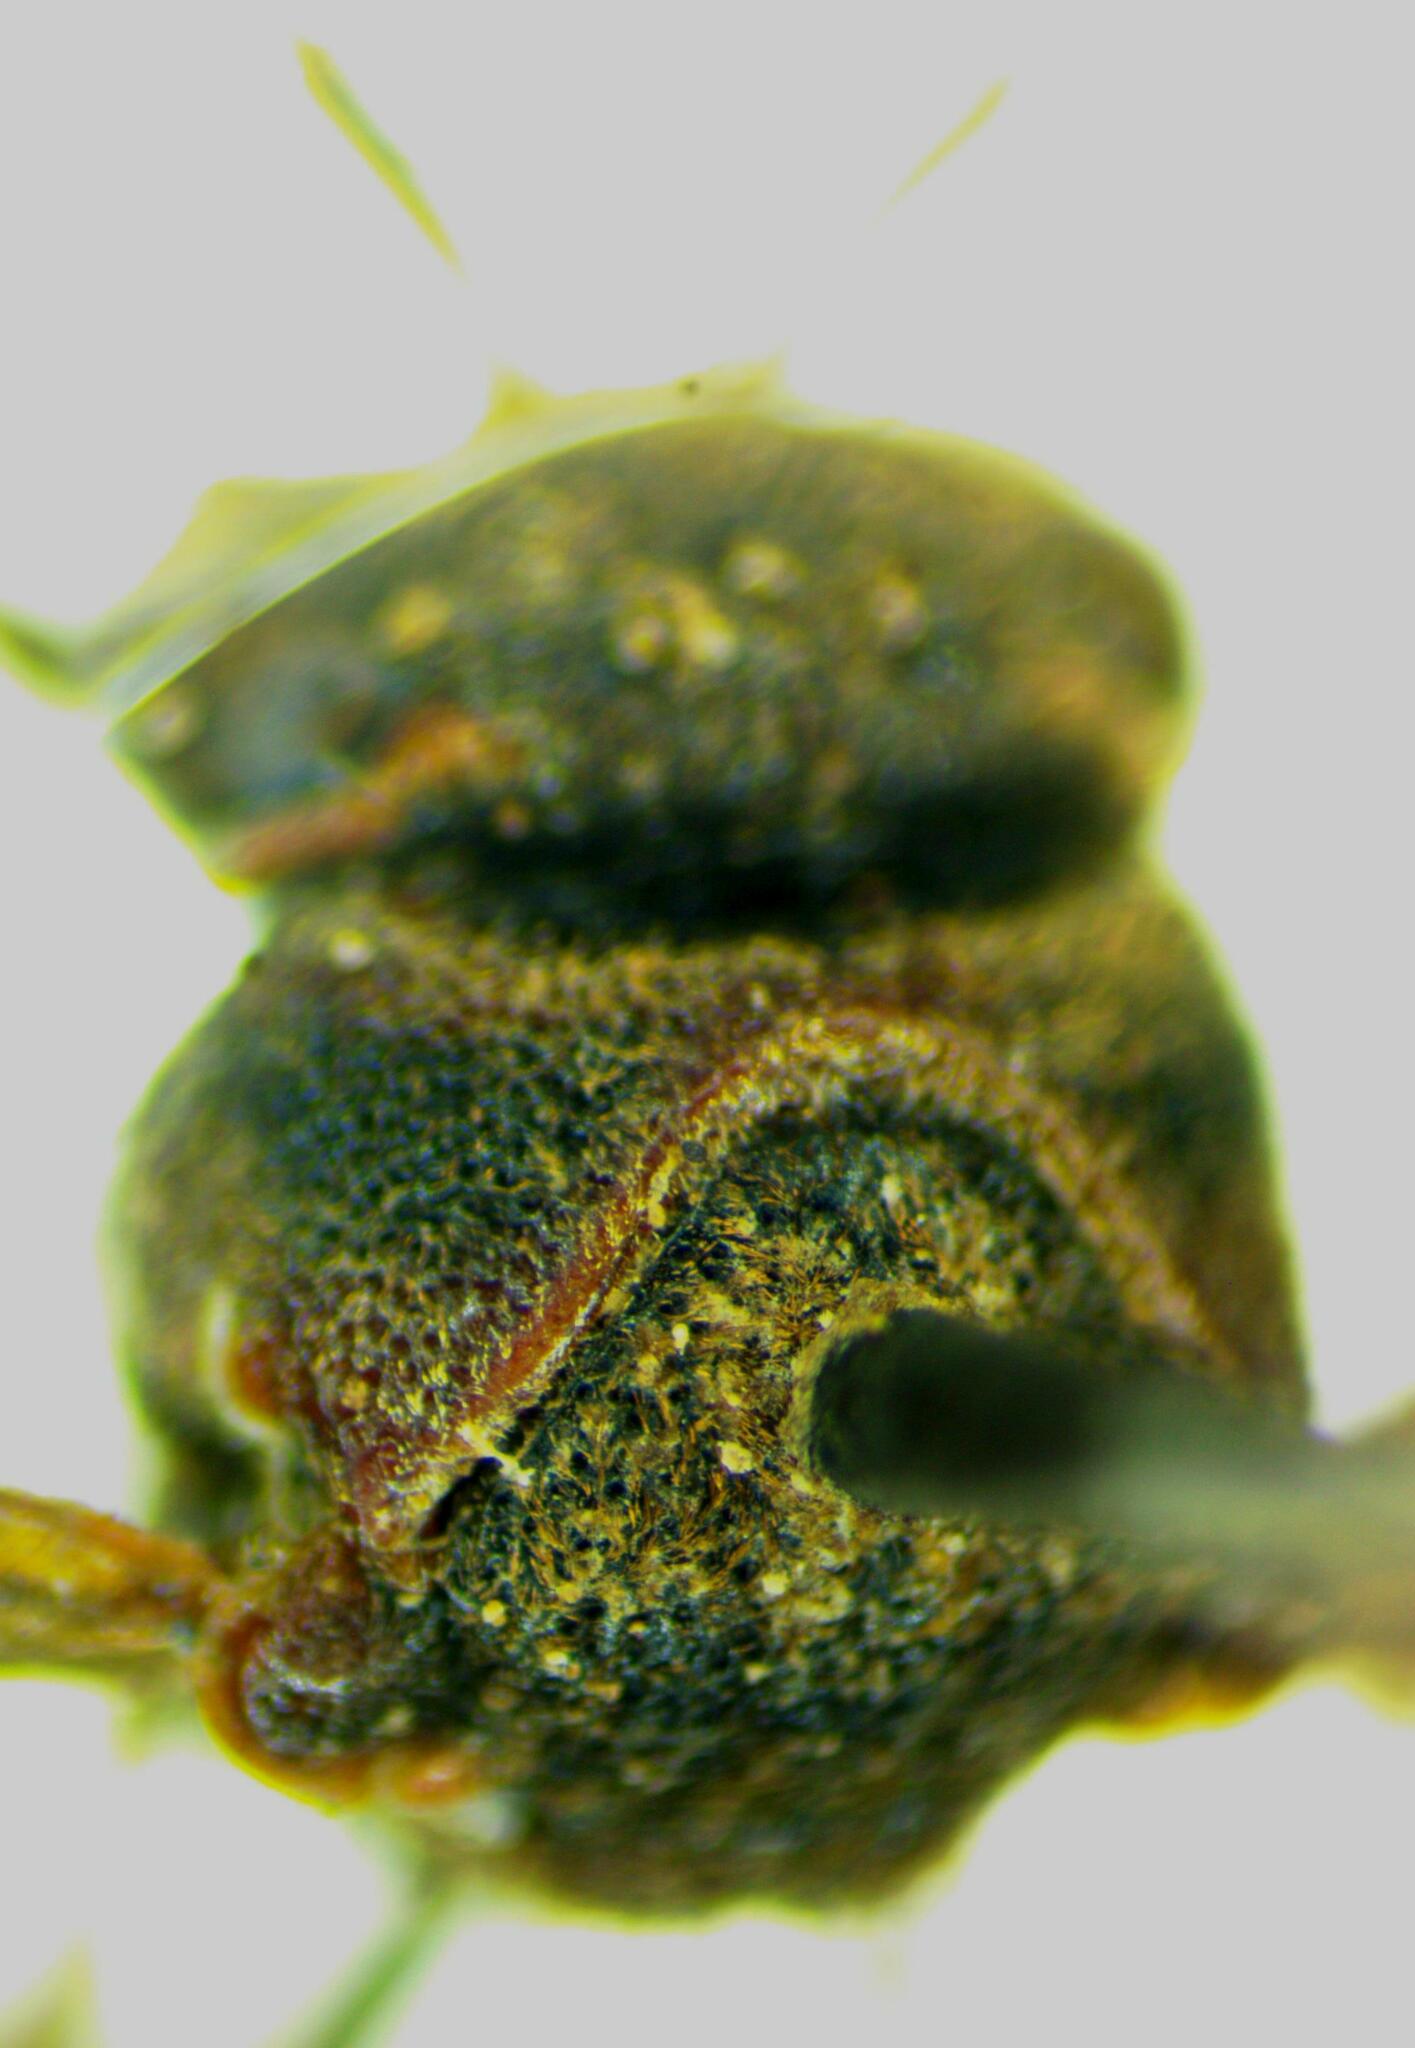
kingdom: Animalia
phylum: Arthropoda
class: Insecta
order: Hymenoptera
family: Eumenidae
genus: Omicron
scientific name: Omicron ypsilon
